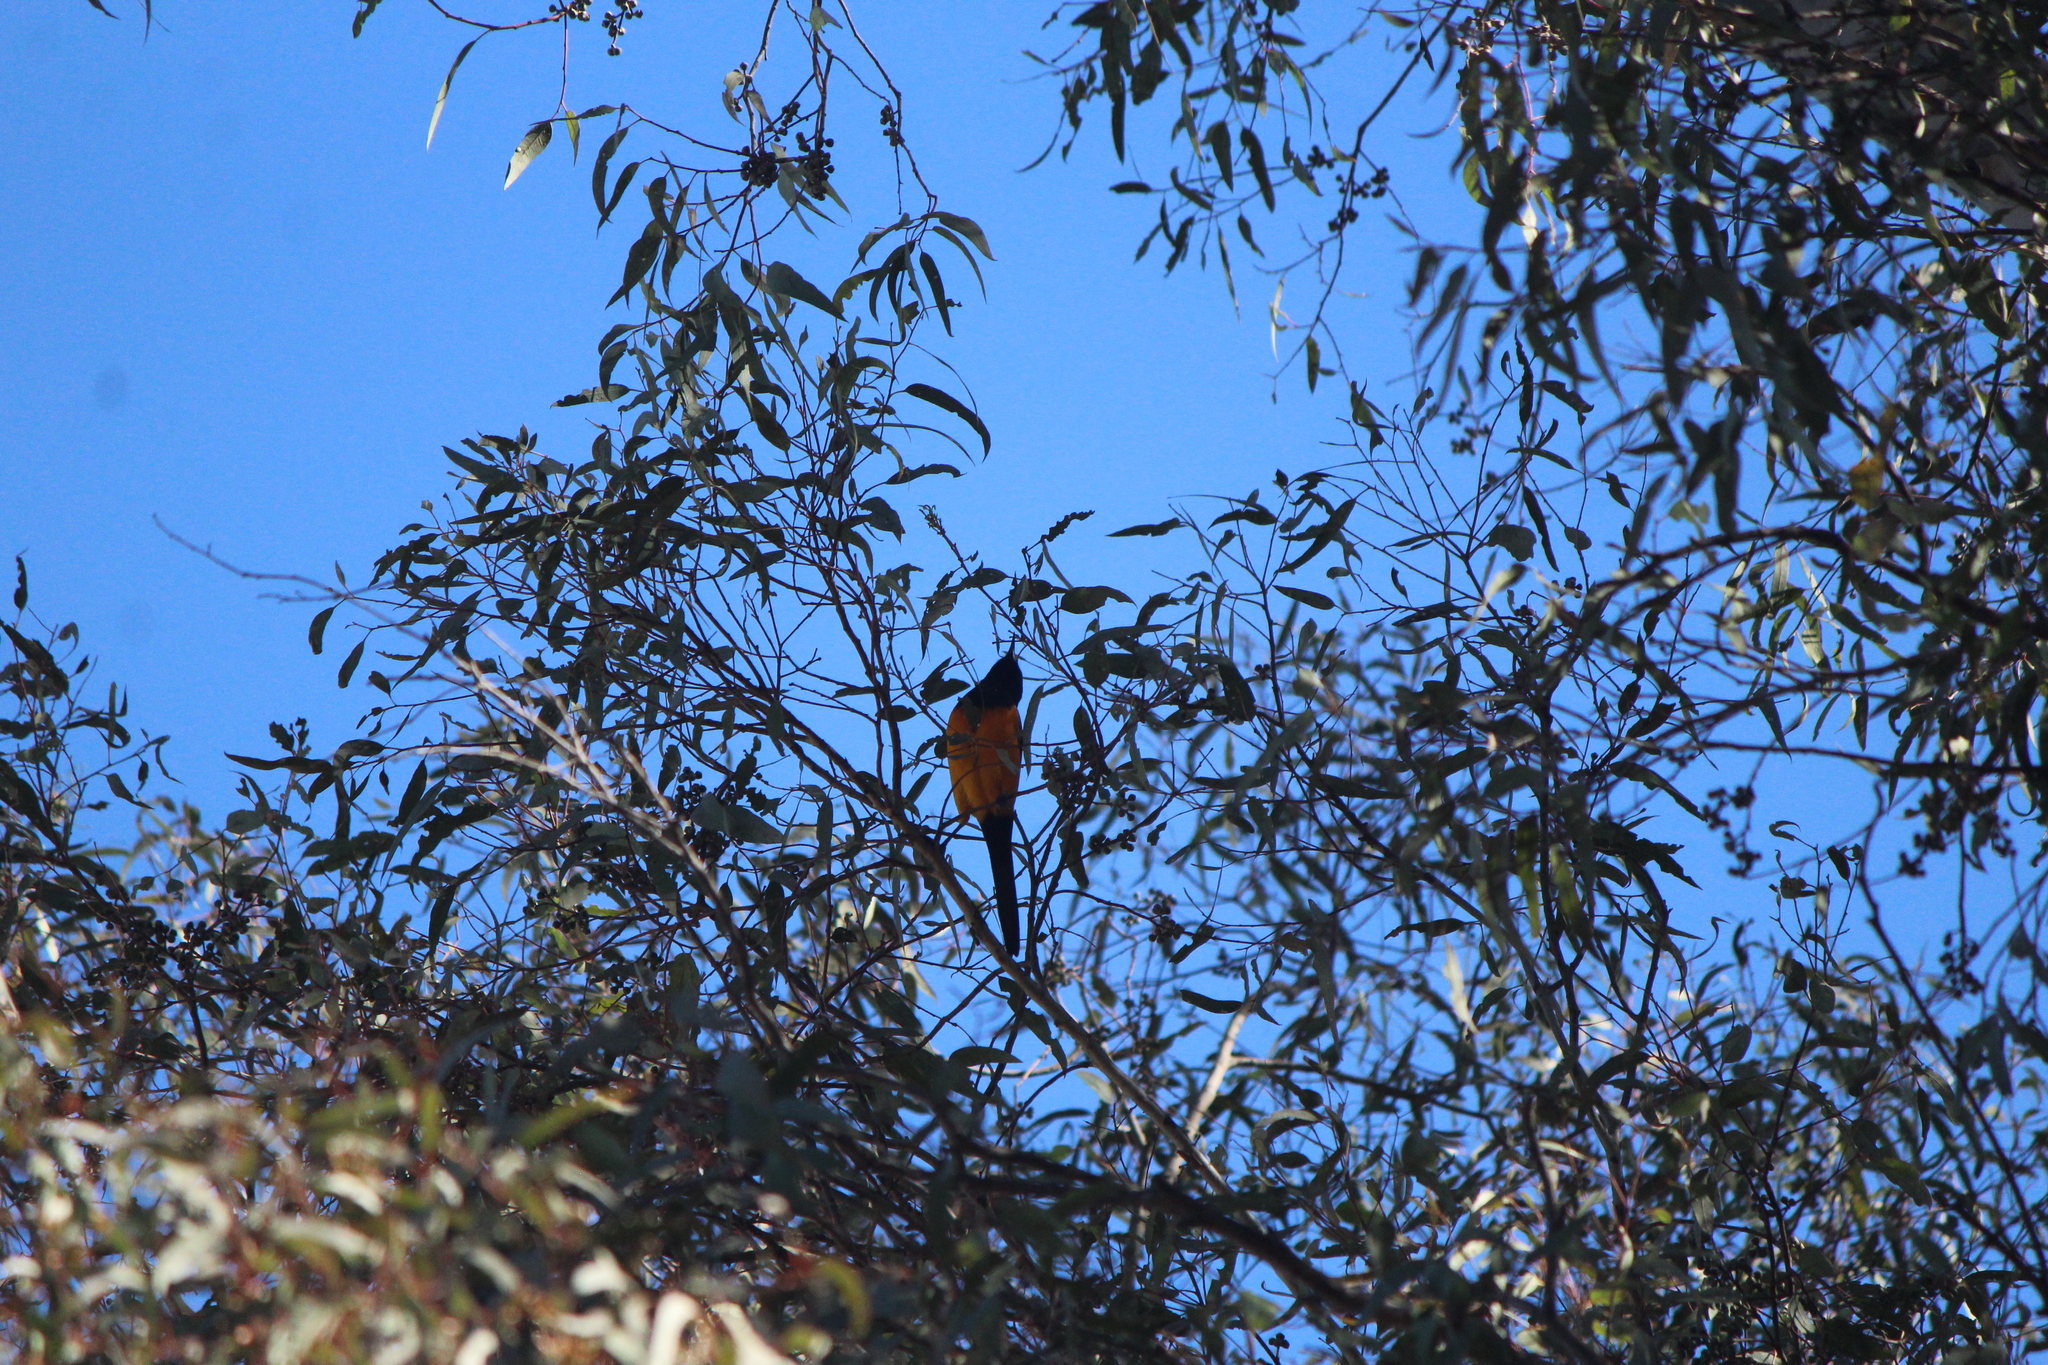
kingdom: Animalia
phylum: Chordata
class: Aves
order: Passeriformes
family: Icteridae
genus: Icterus
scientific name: Icterus wagleri
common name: Black-vented oriole
